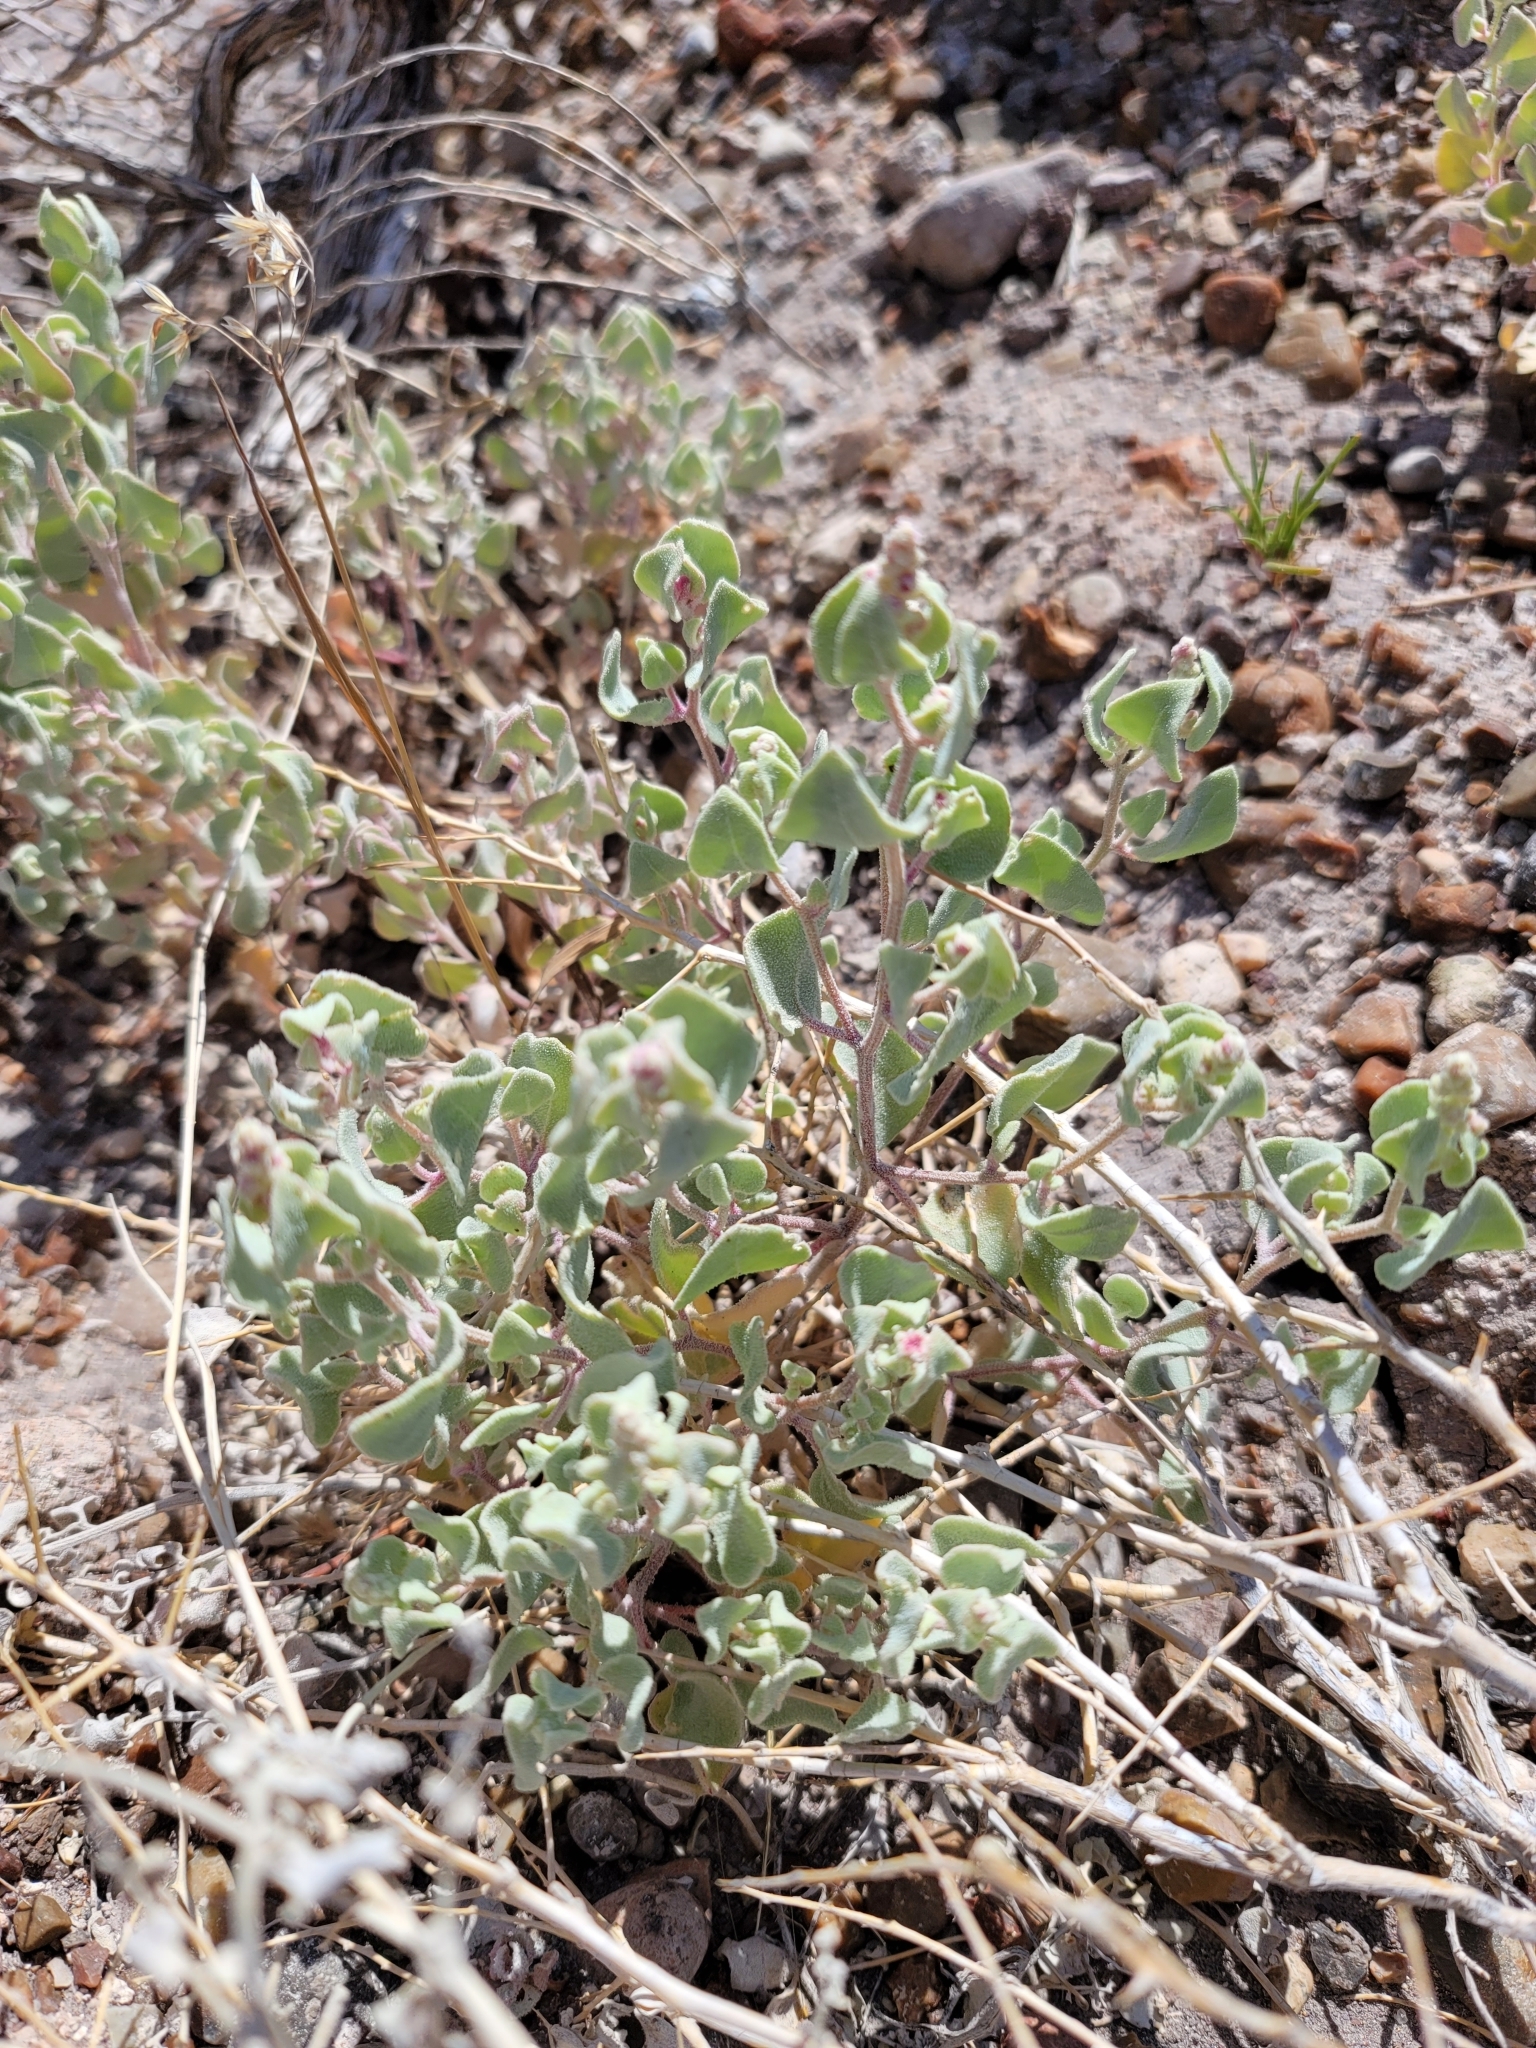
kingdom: Plantae
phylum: Tracheophyta
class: Magnoliopsida
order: Caryophyllales
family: Amaranthaceae
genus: Atriplex
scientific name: Atriplex saccaria
